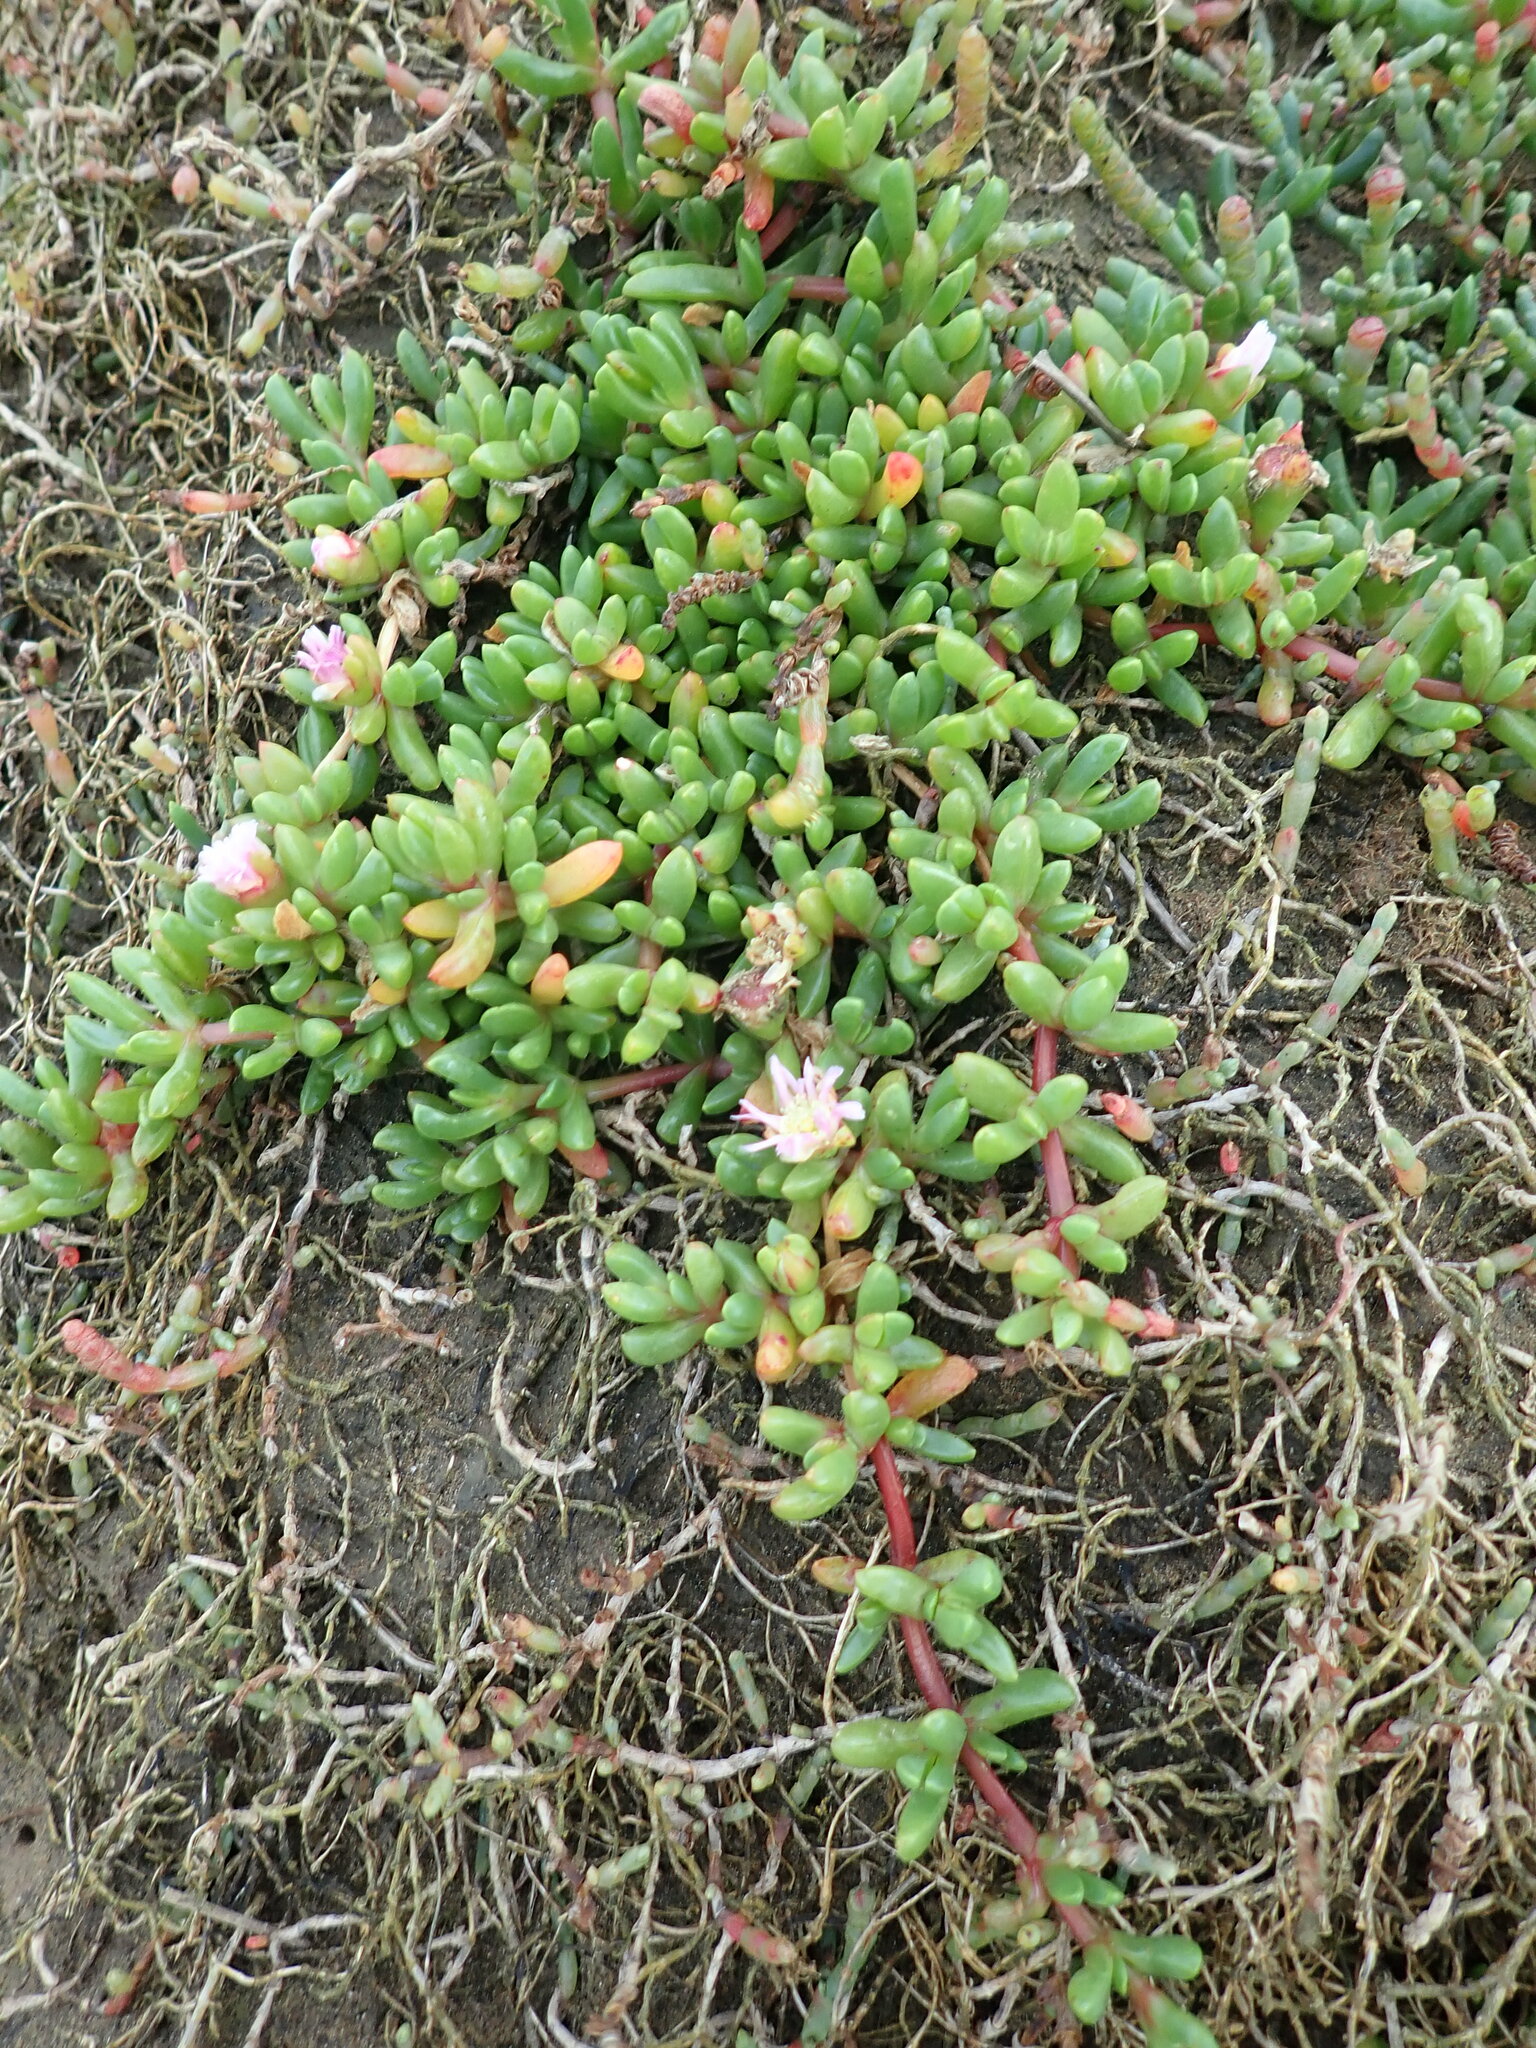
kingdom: Plantae
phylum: Tracheophyta
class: Magnoliopsida
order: Caryophyllales
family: Aizoaceae
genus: Disphyma
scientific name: Disphyma australe
